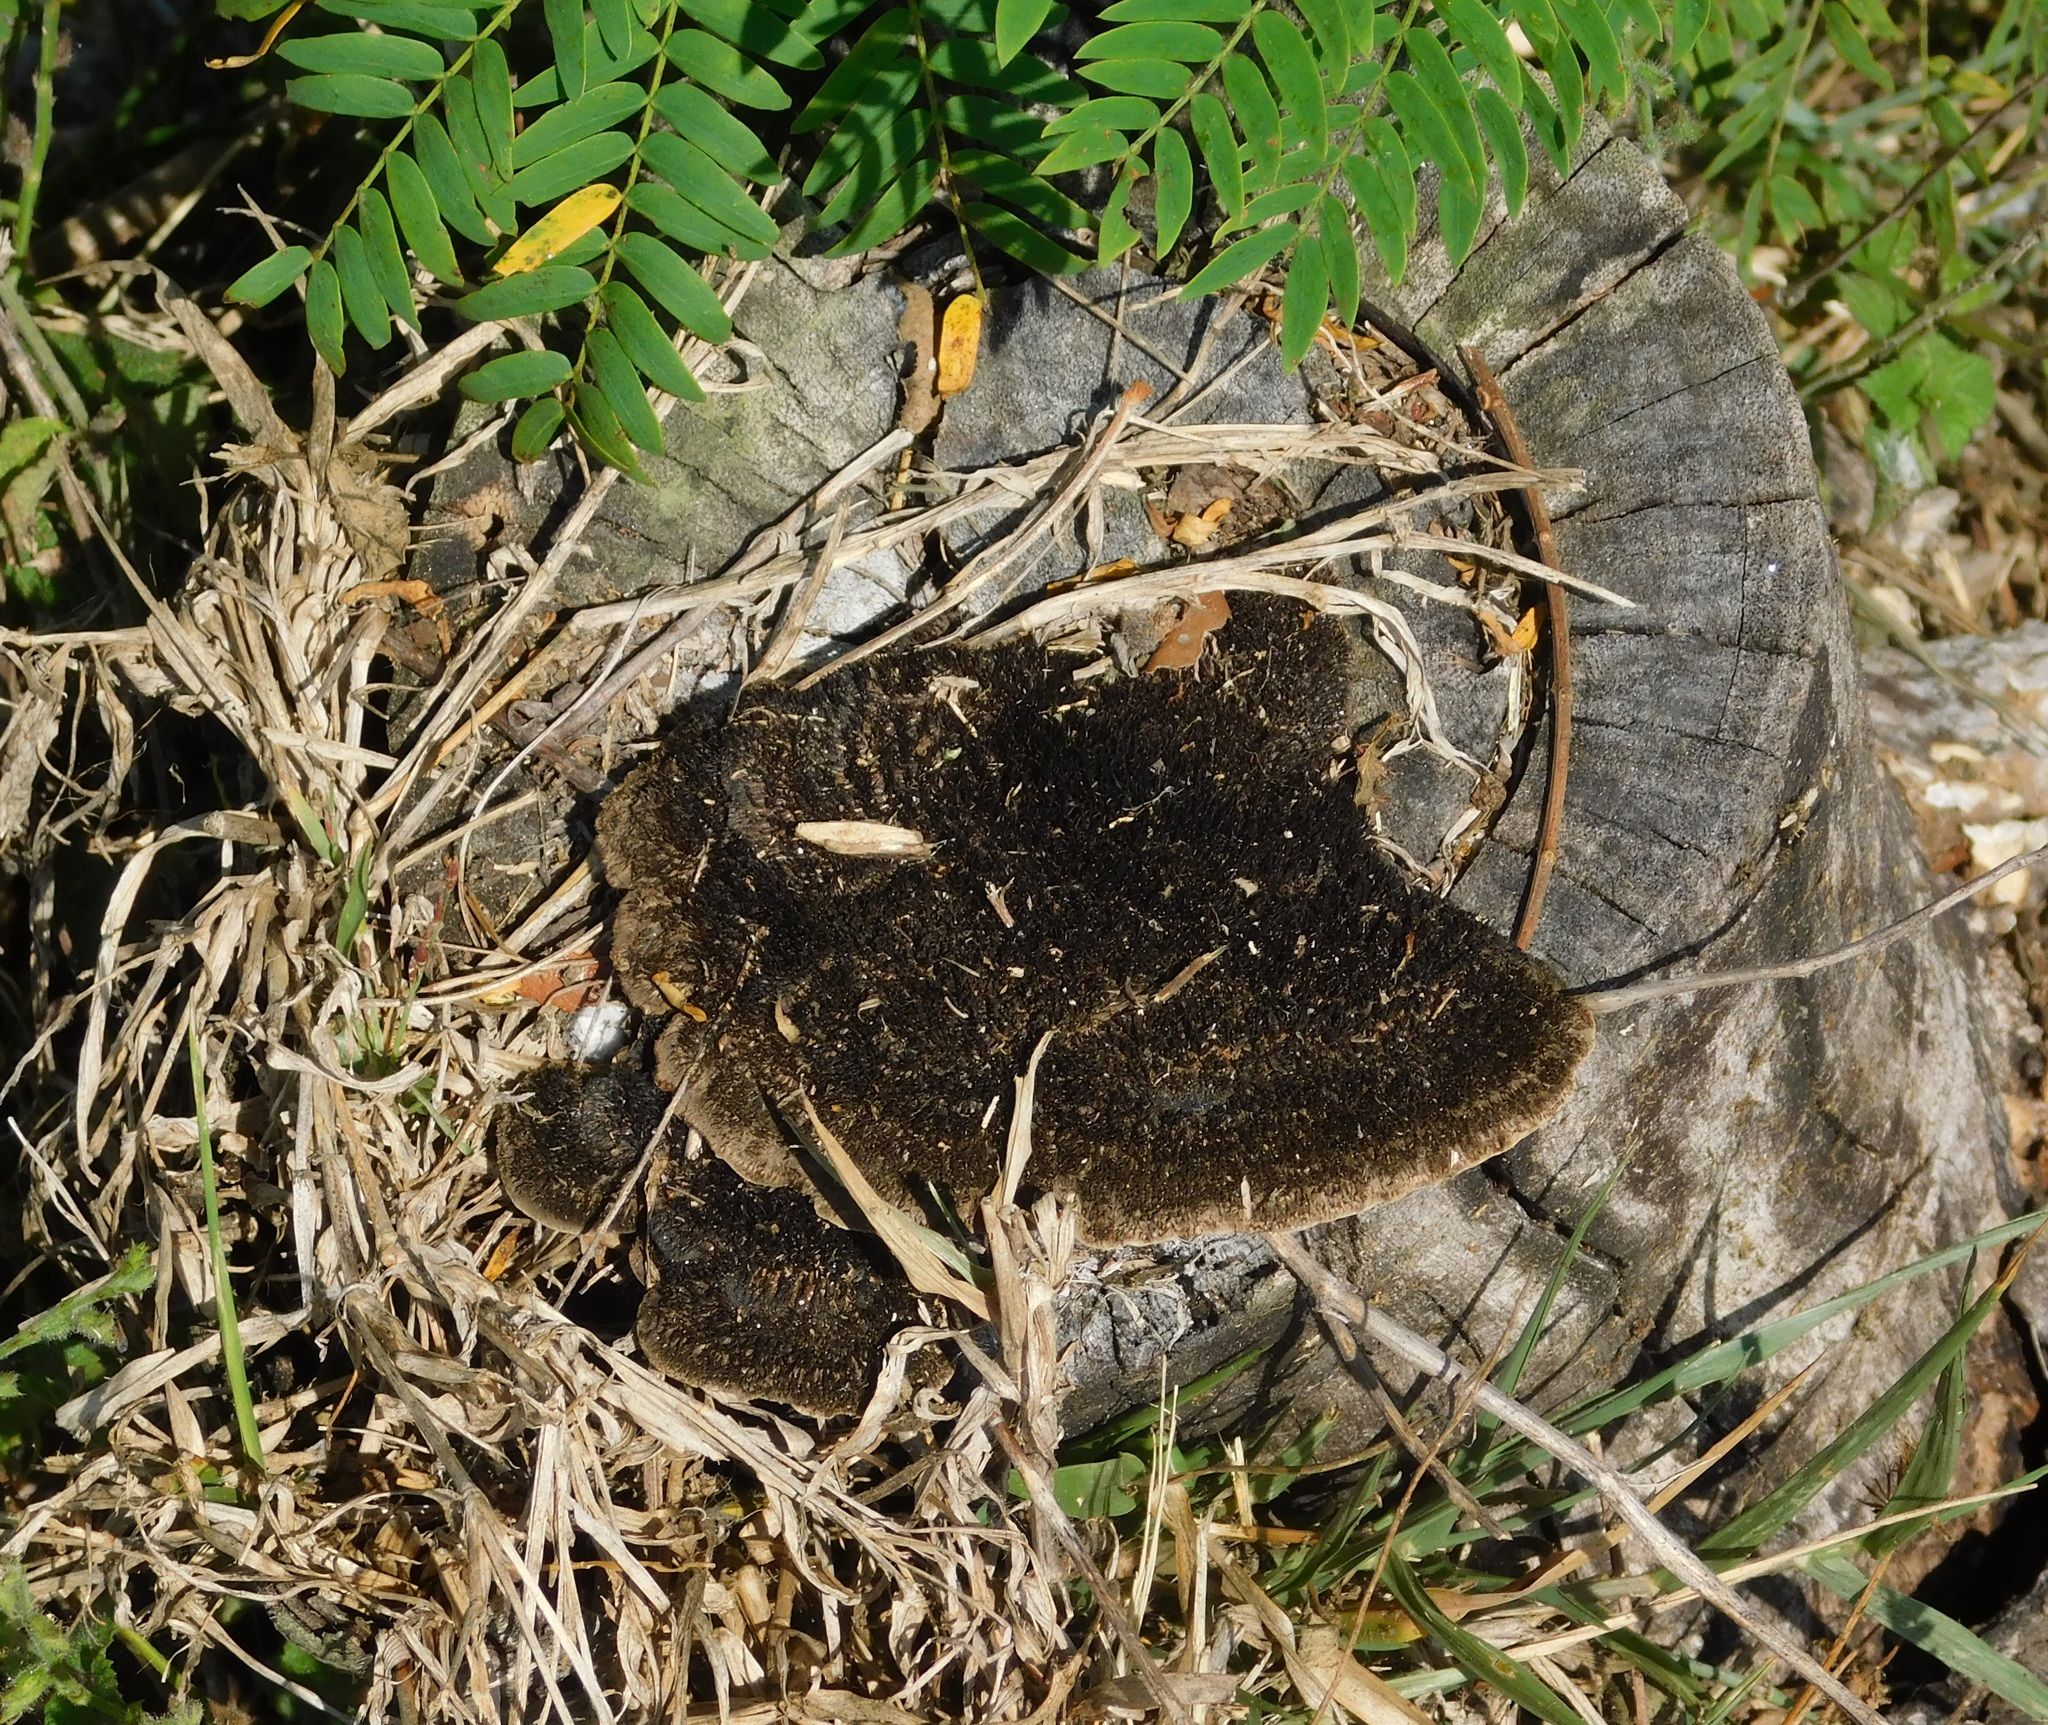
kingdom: Fungi
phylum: Basidiomycota
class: Agaricomycetes
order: Polyporales
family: Cerrenaceae
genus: Cerrena
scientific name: Cerrena hydnoides
